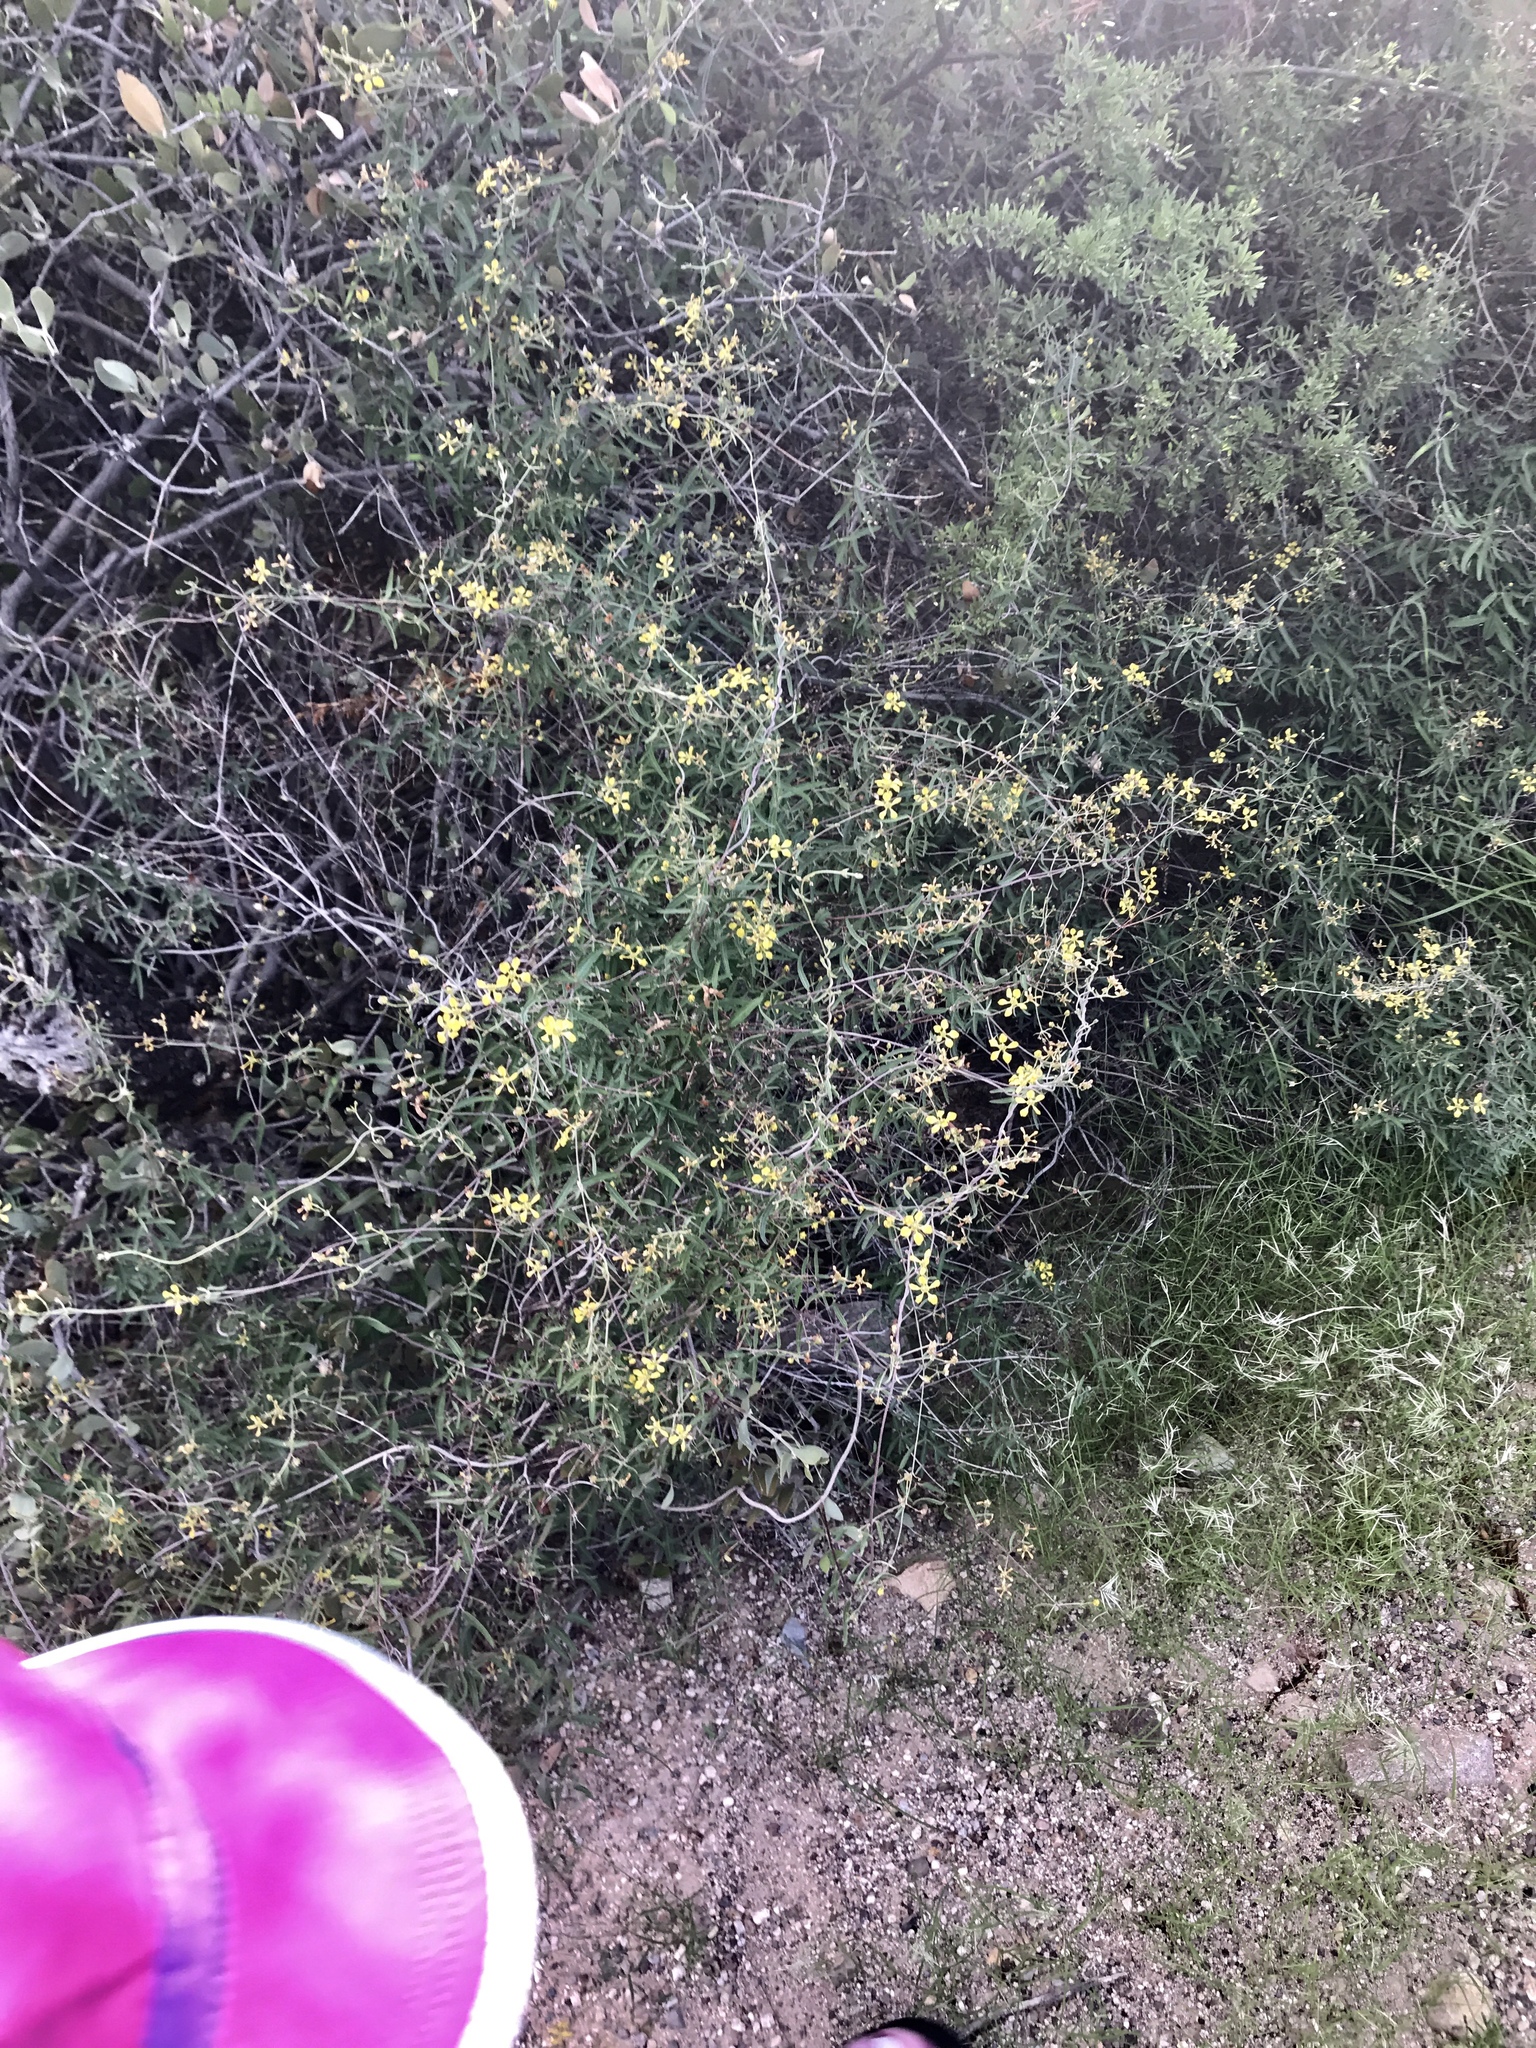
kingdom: Plantae
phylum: Tracheophyta
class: Magnoliopsida
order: Malpighiales
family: Malpighiaceae
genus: Cottsia
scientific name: Cottsia gracilis
